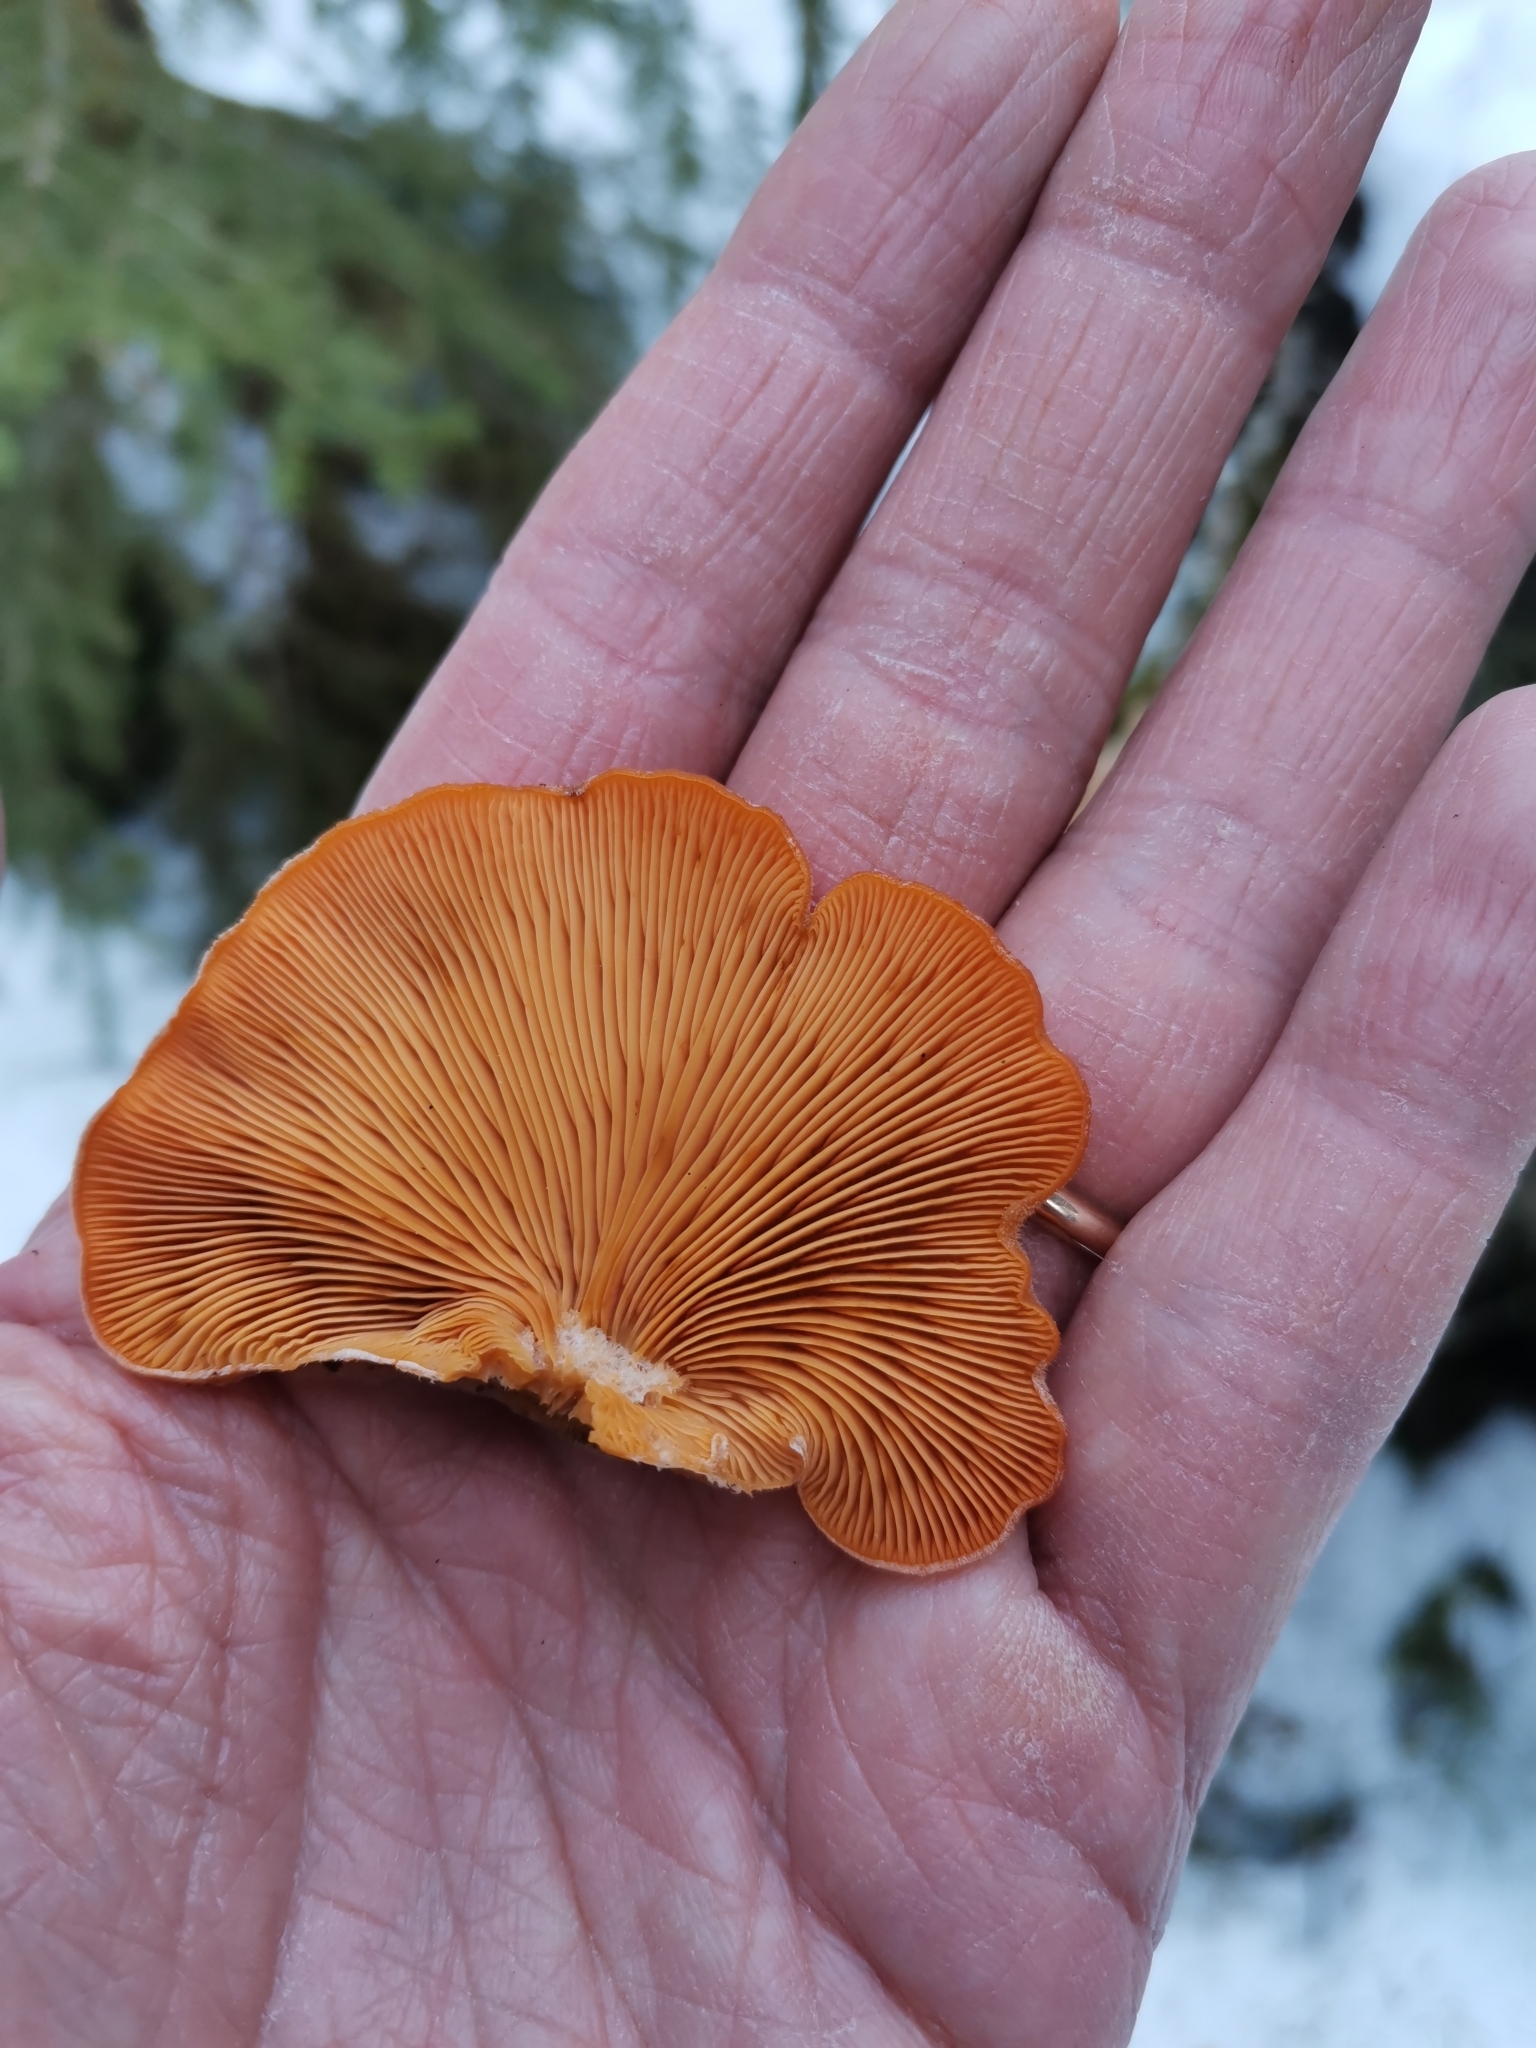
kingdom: Fungi
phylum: Basidiomycota
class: Agaricomycetes
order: Agaricales
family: Phyllotopsidaceae
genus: Phyllotopsis
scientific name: Phyllotopsis nidulans
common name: Orange mock oyster
